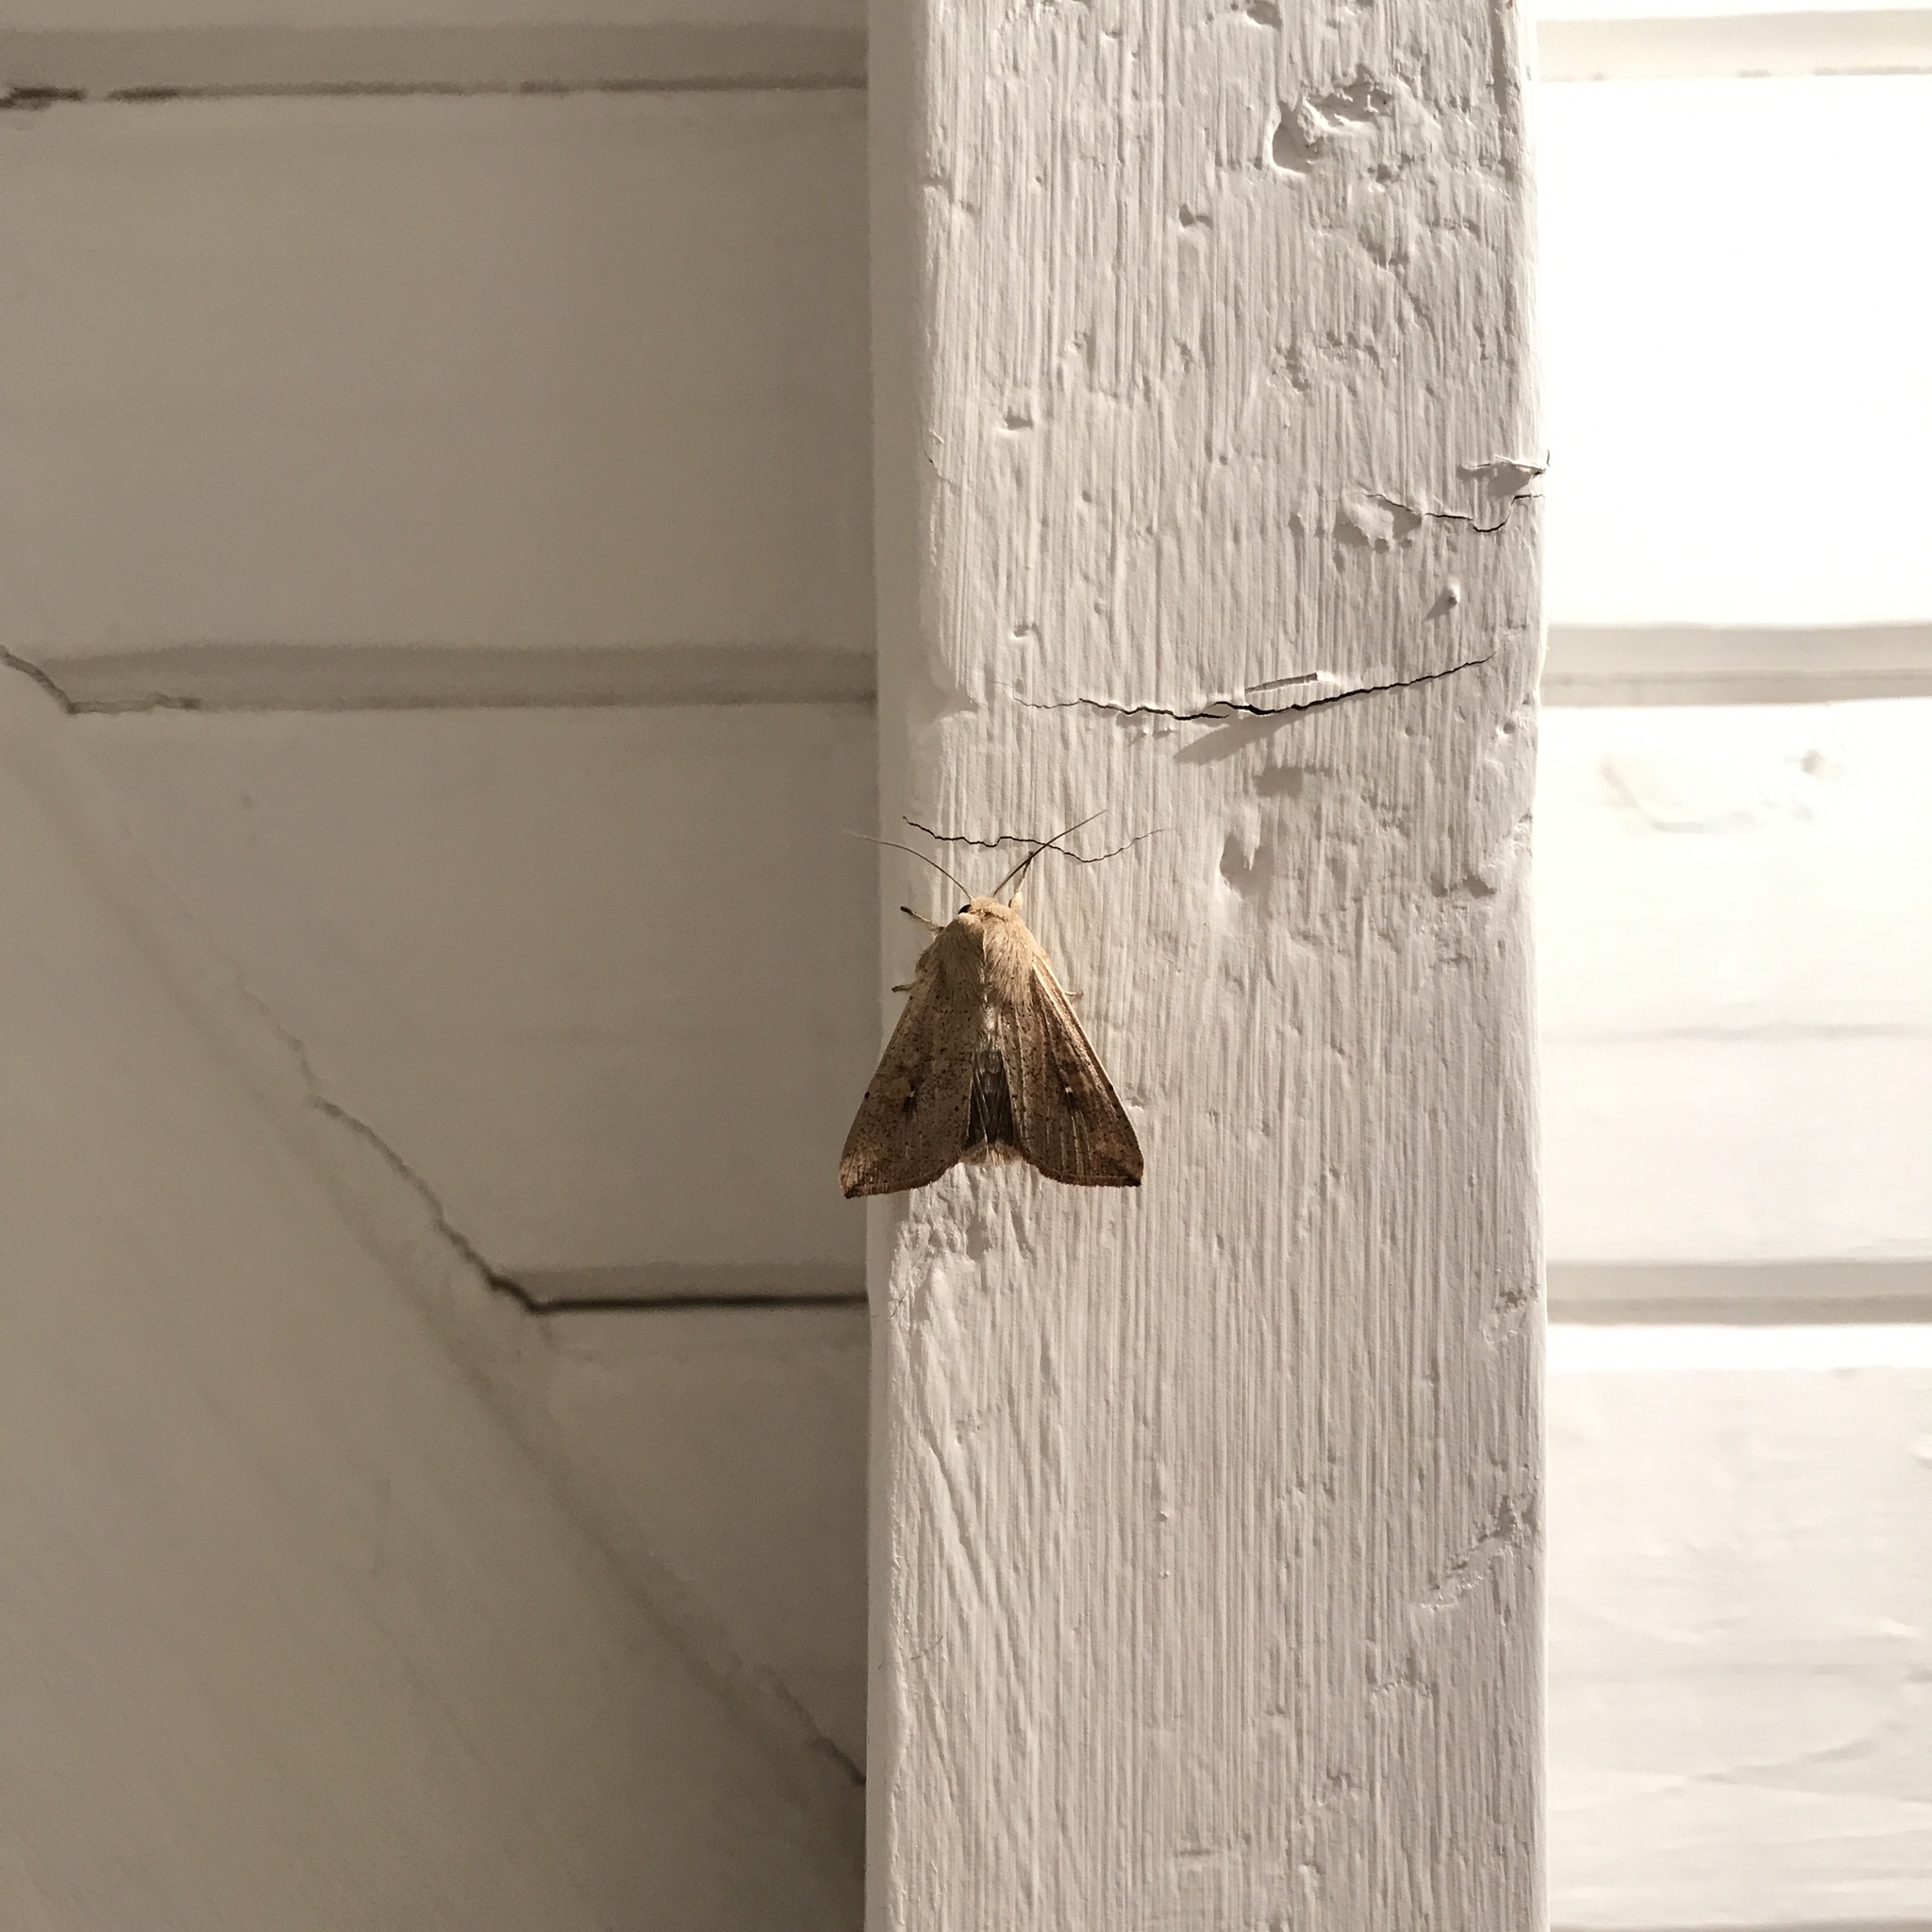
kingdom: Animalia
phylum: Arthropoda
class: Insecta
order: Lepidoptera
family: Noctuidae
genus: Mythimna
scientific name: Mythimna punctulata
